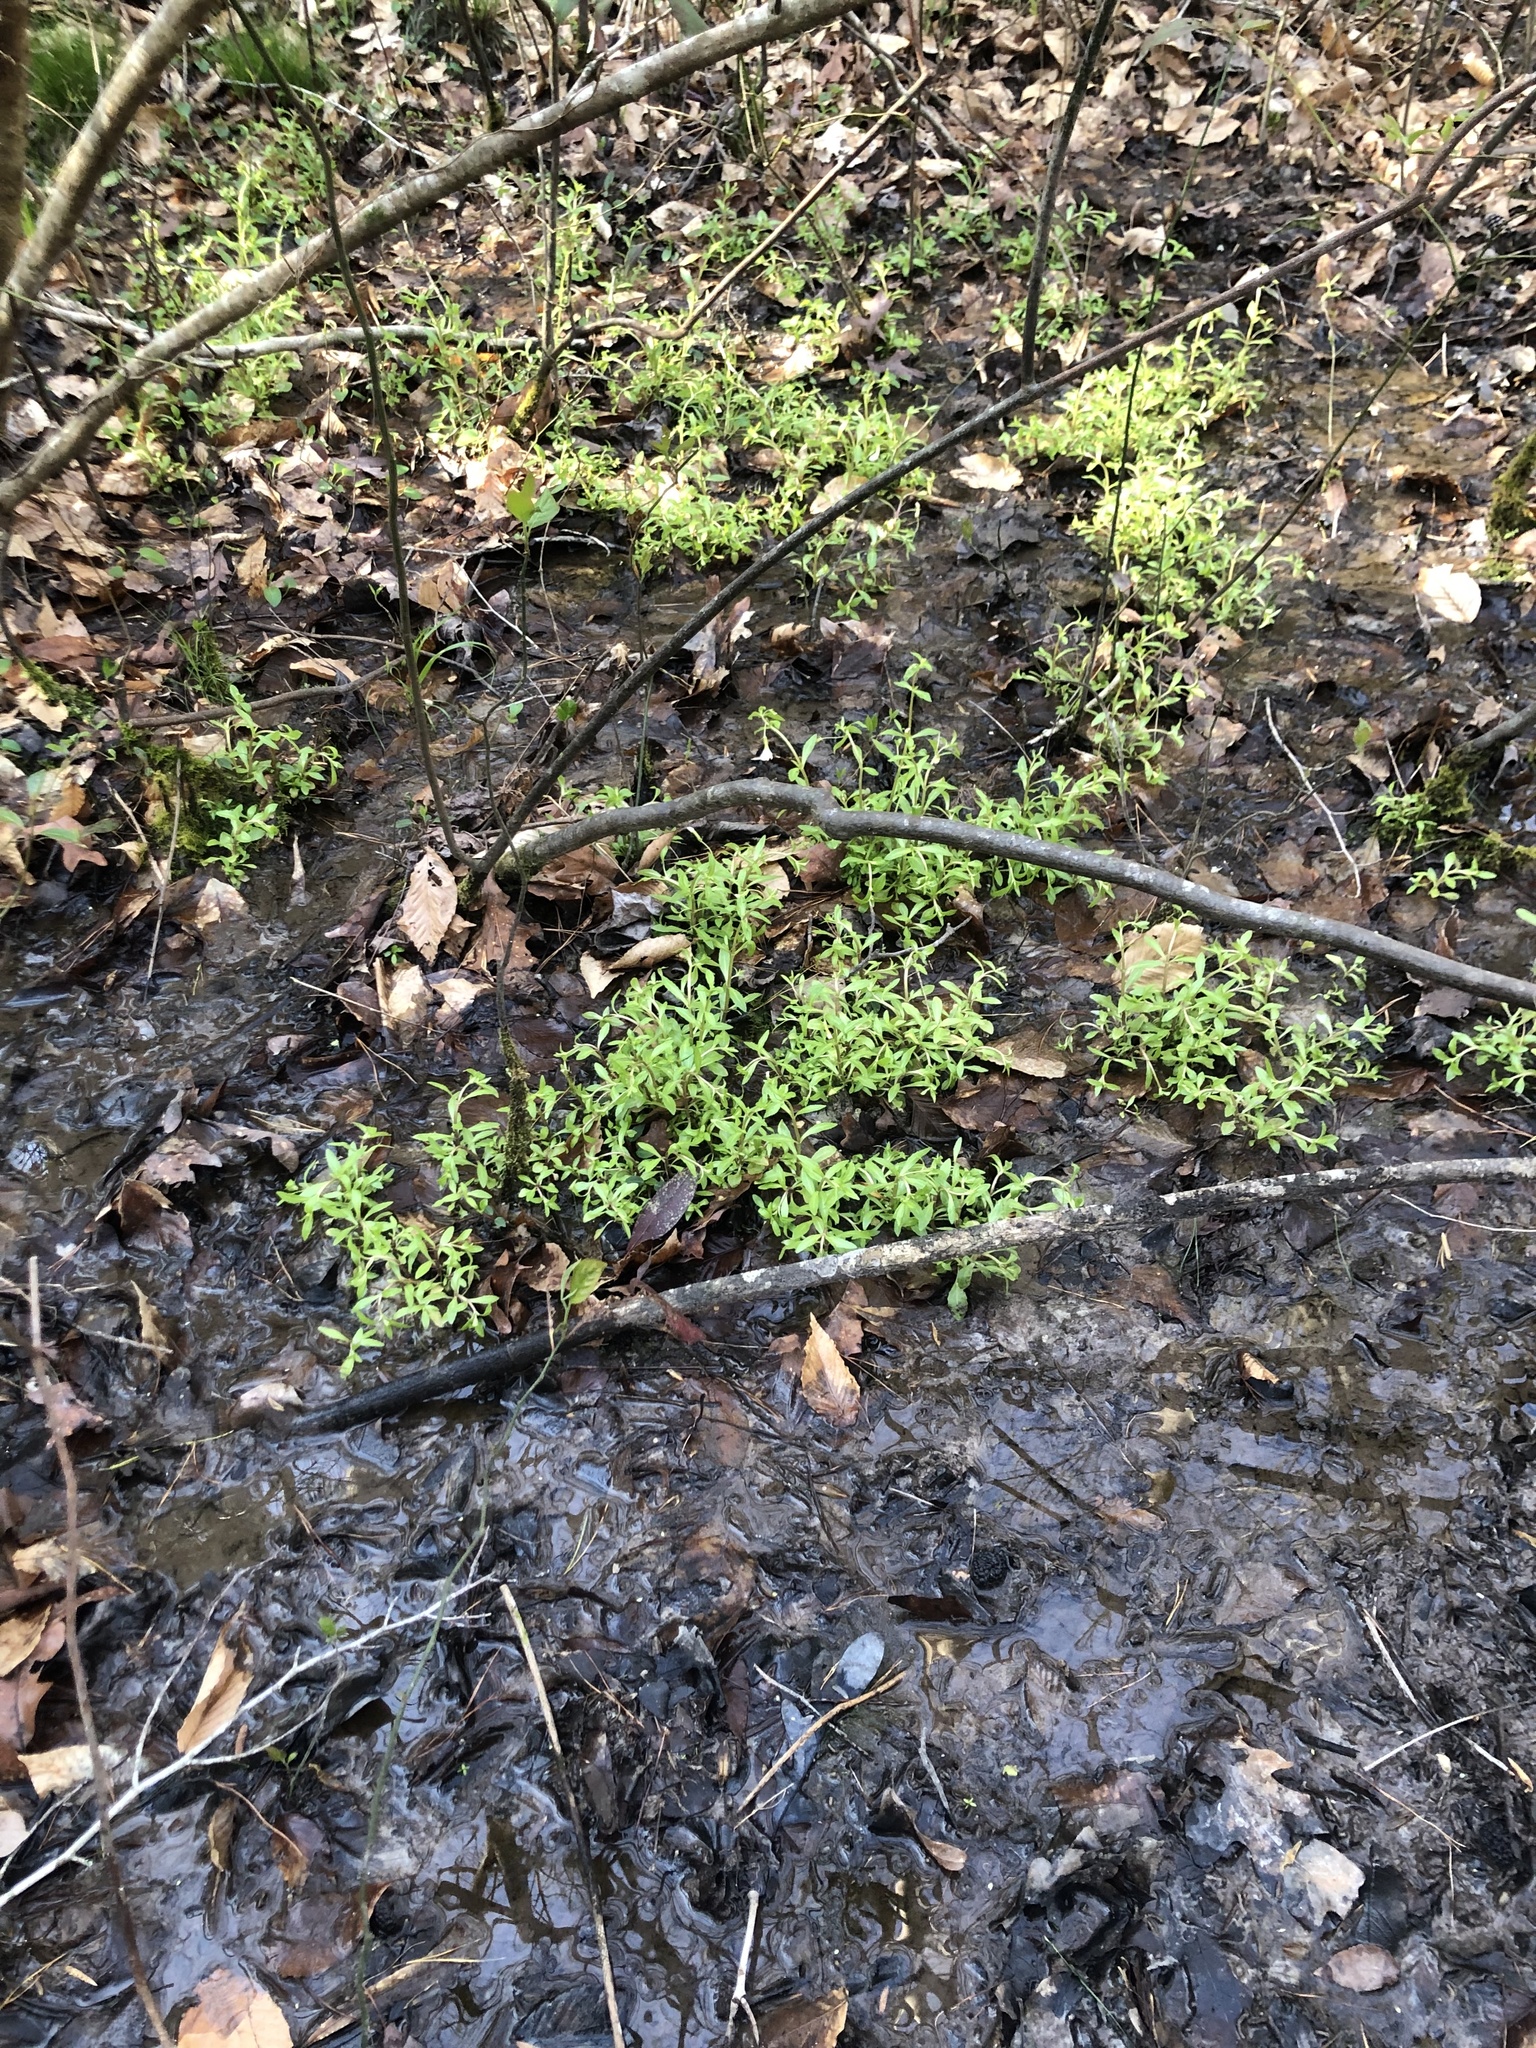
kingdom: Plantae
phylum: Tracheophyta
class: Magnoliopsida
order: Lamiales
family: Plantaginaceae
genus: Gratiola
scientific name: Gratiola floridana
